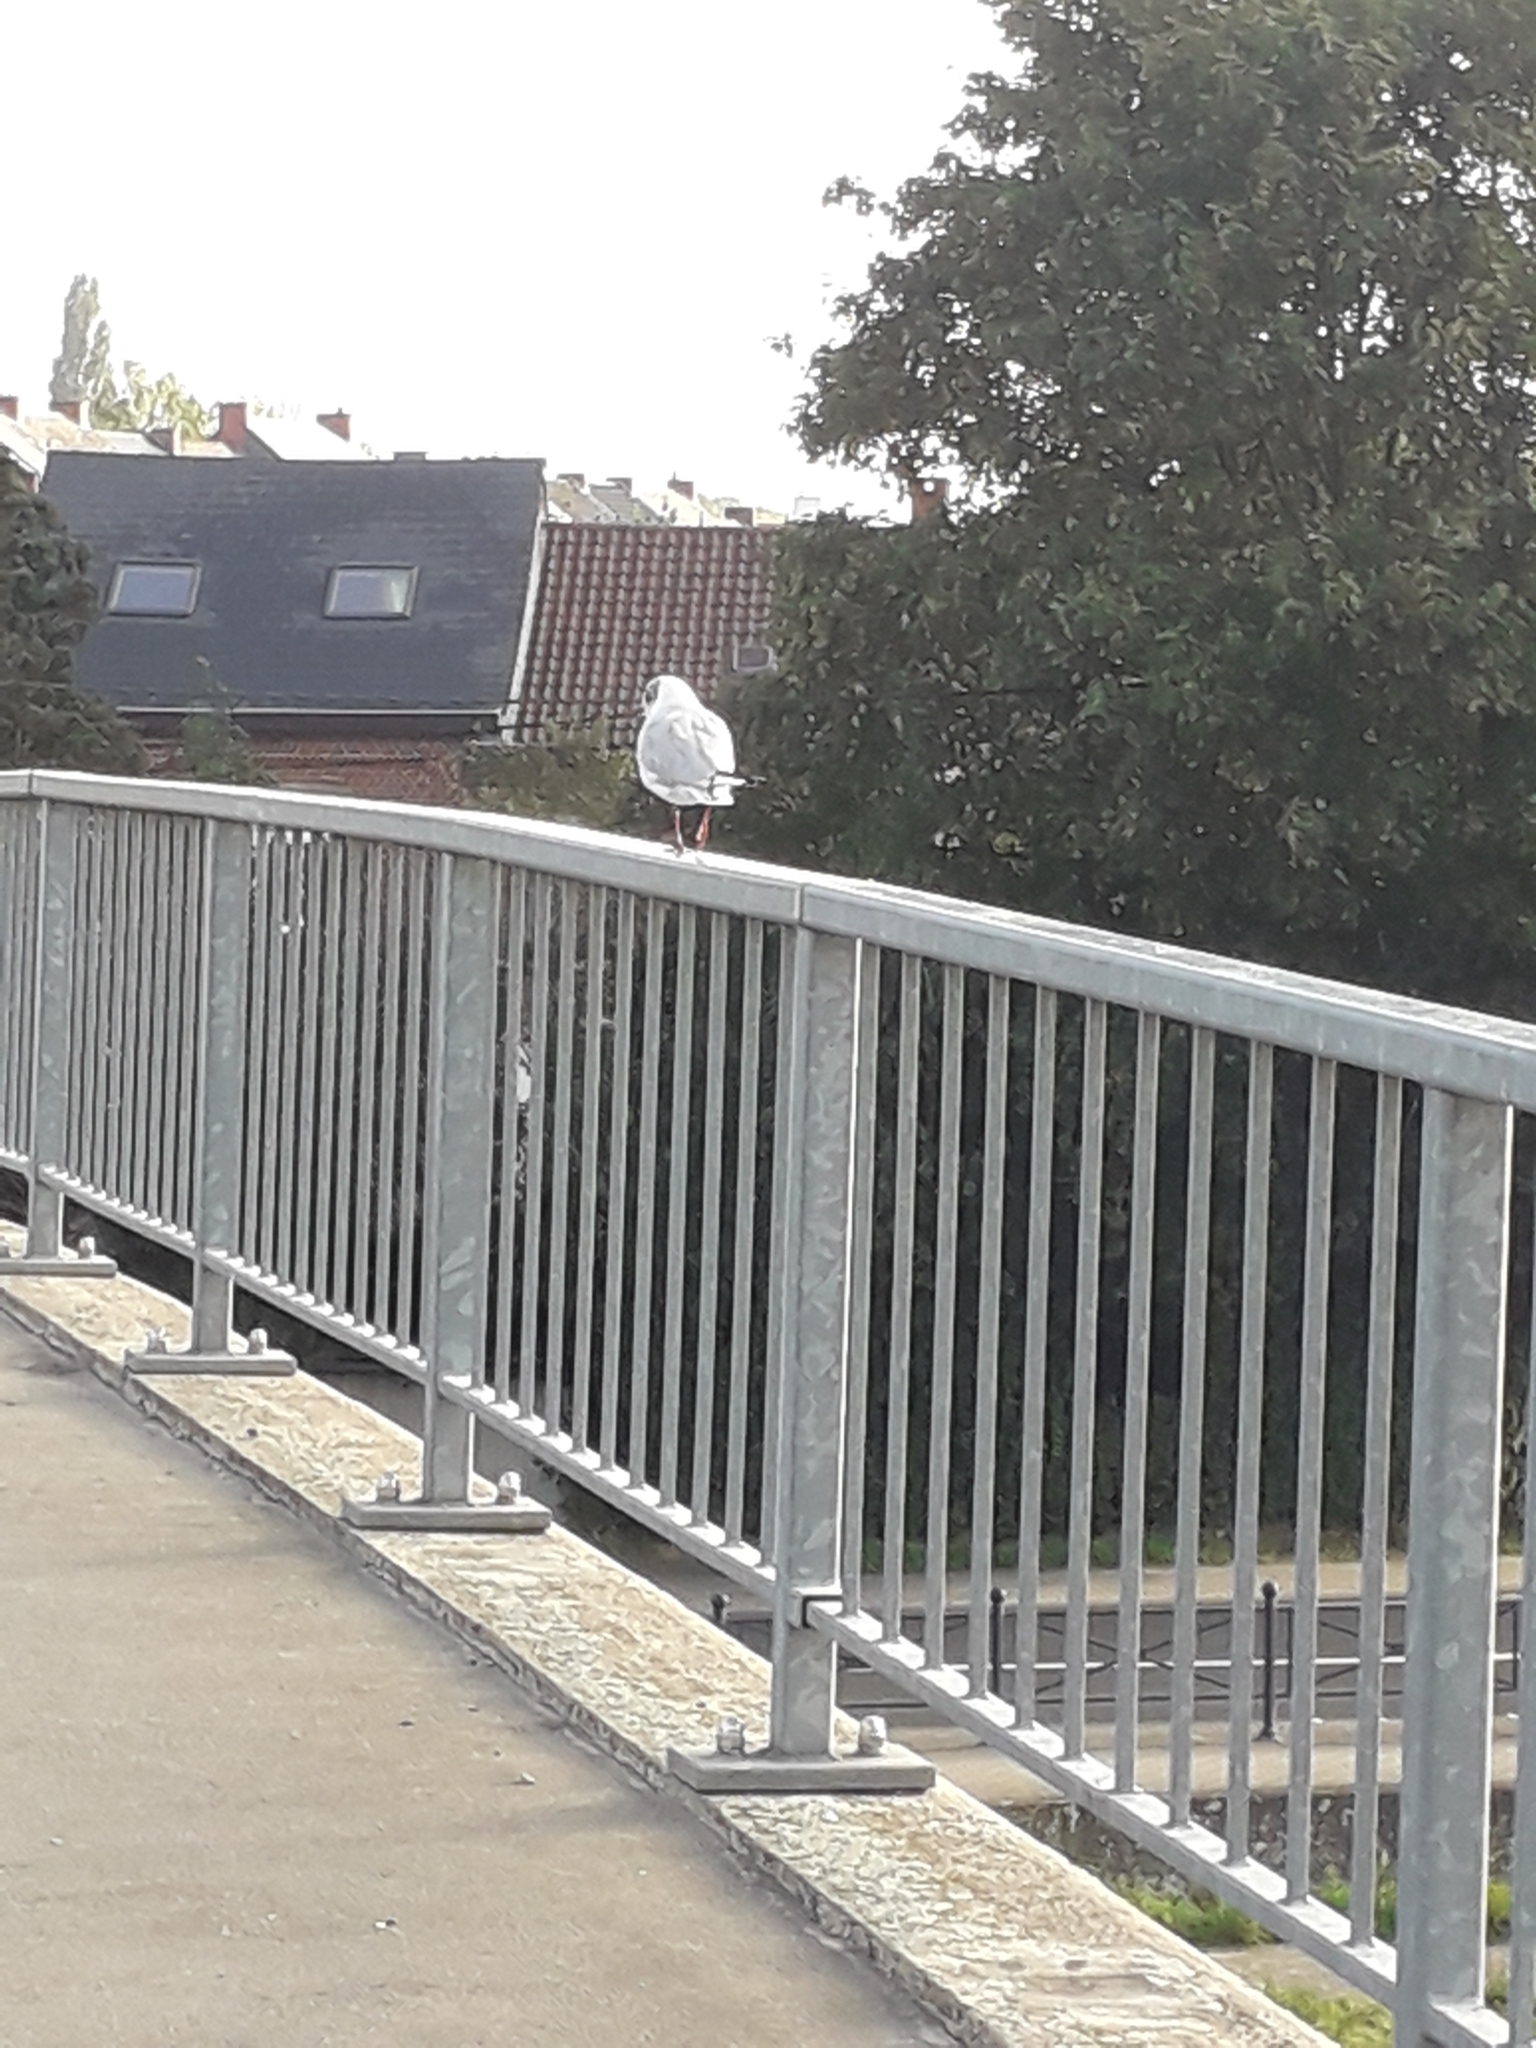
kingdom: Animalia
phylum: Chordata
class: Aves
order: Charadriiformes
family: Laridae
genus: Chroicocephalus
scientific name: Chroicocephalus ridibundus
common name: Black-headed gull
